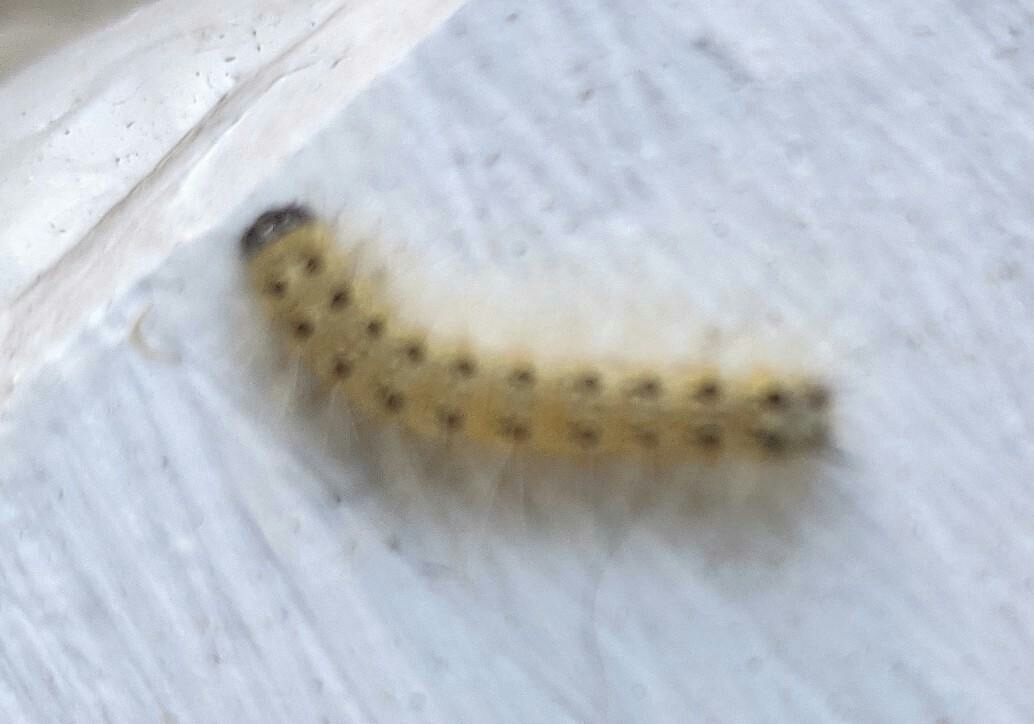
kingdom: Animalia
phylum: Arthropoda
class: Insecta
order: Lepidoptera
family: Erebidae
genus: Hyphantria
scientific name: Hyphantria cunea
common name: American white moth
